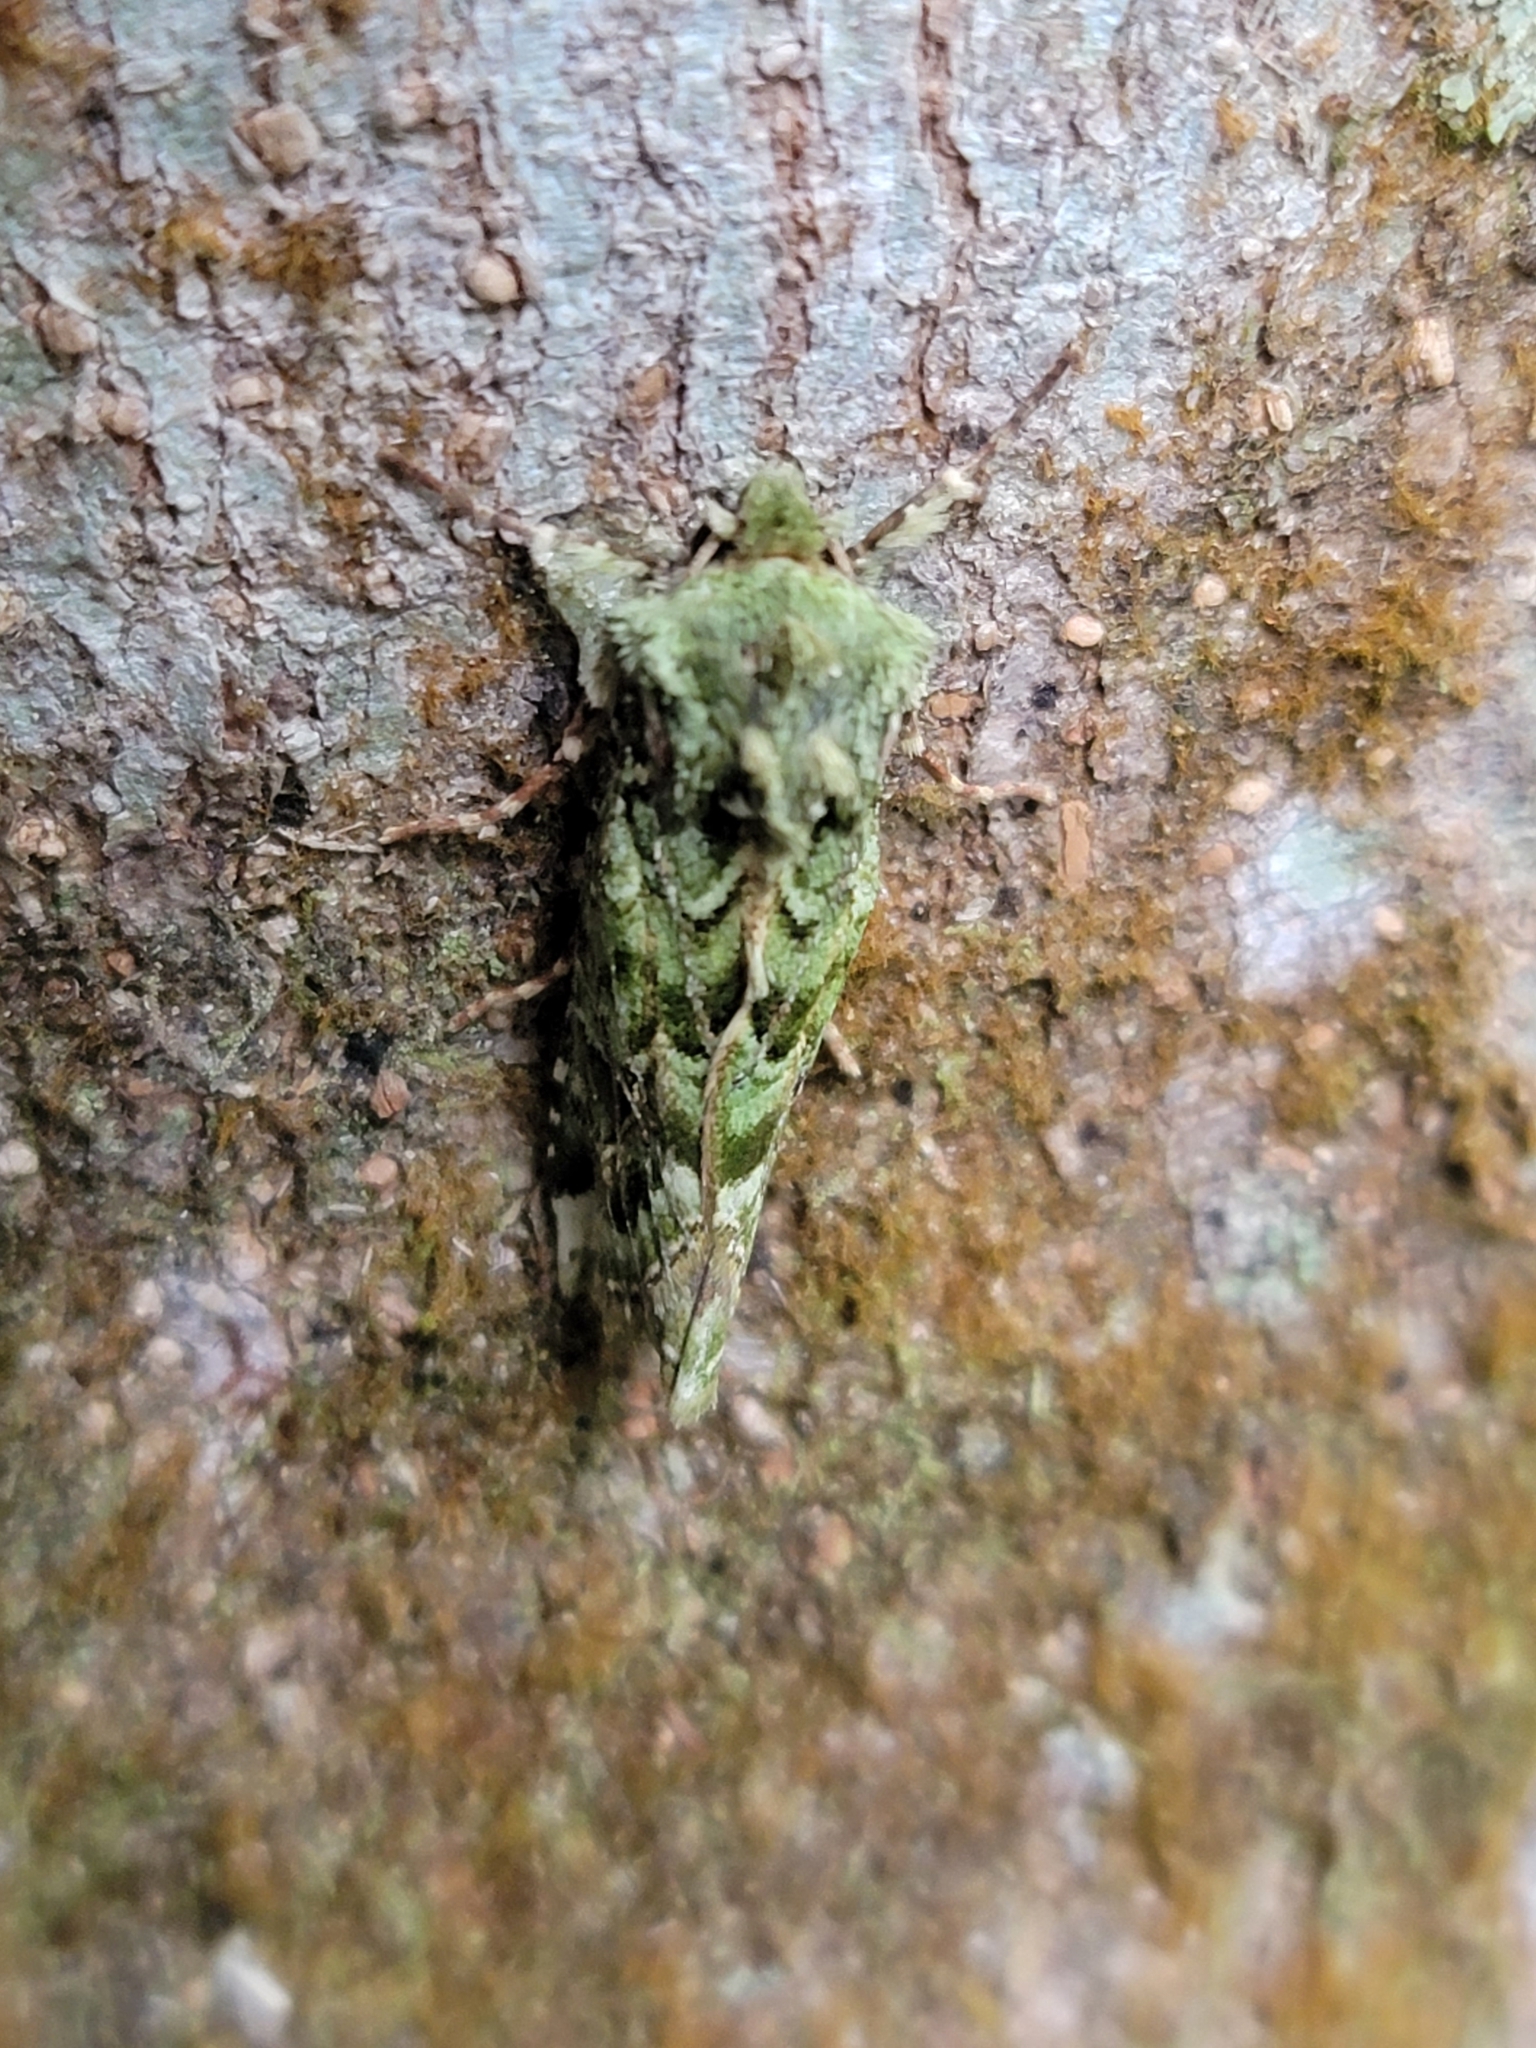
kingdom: Animalia
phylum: Arthropoda
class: Insecta
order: Lepidoptera
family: Noctuidae
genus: Feredayia
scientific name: Feredayia grammosa
